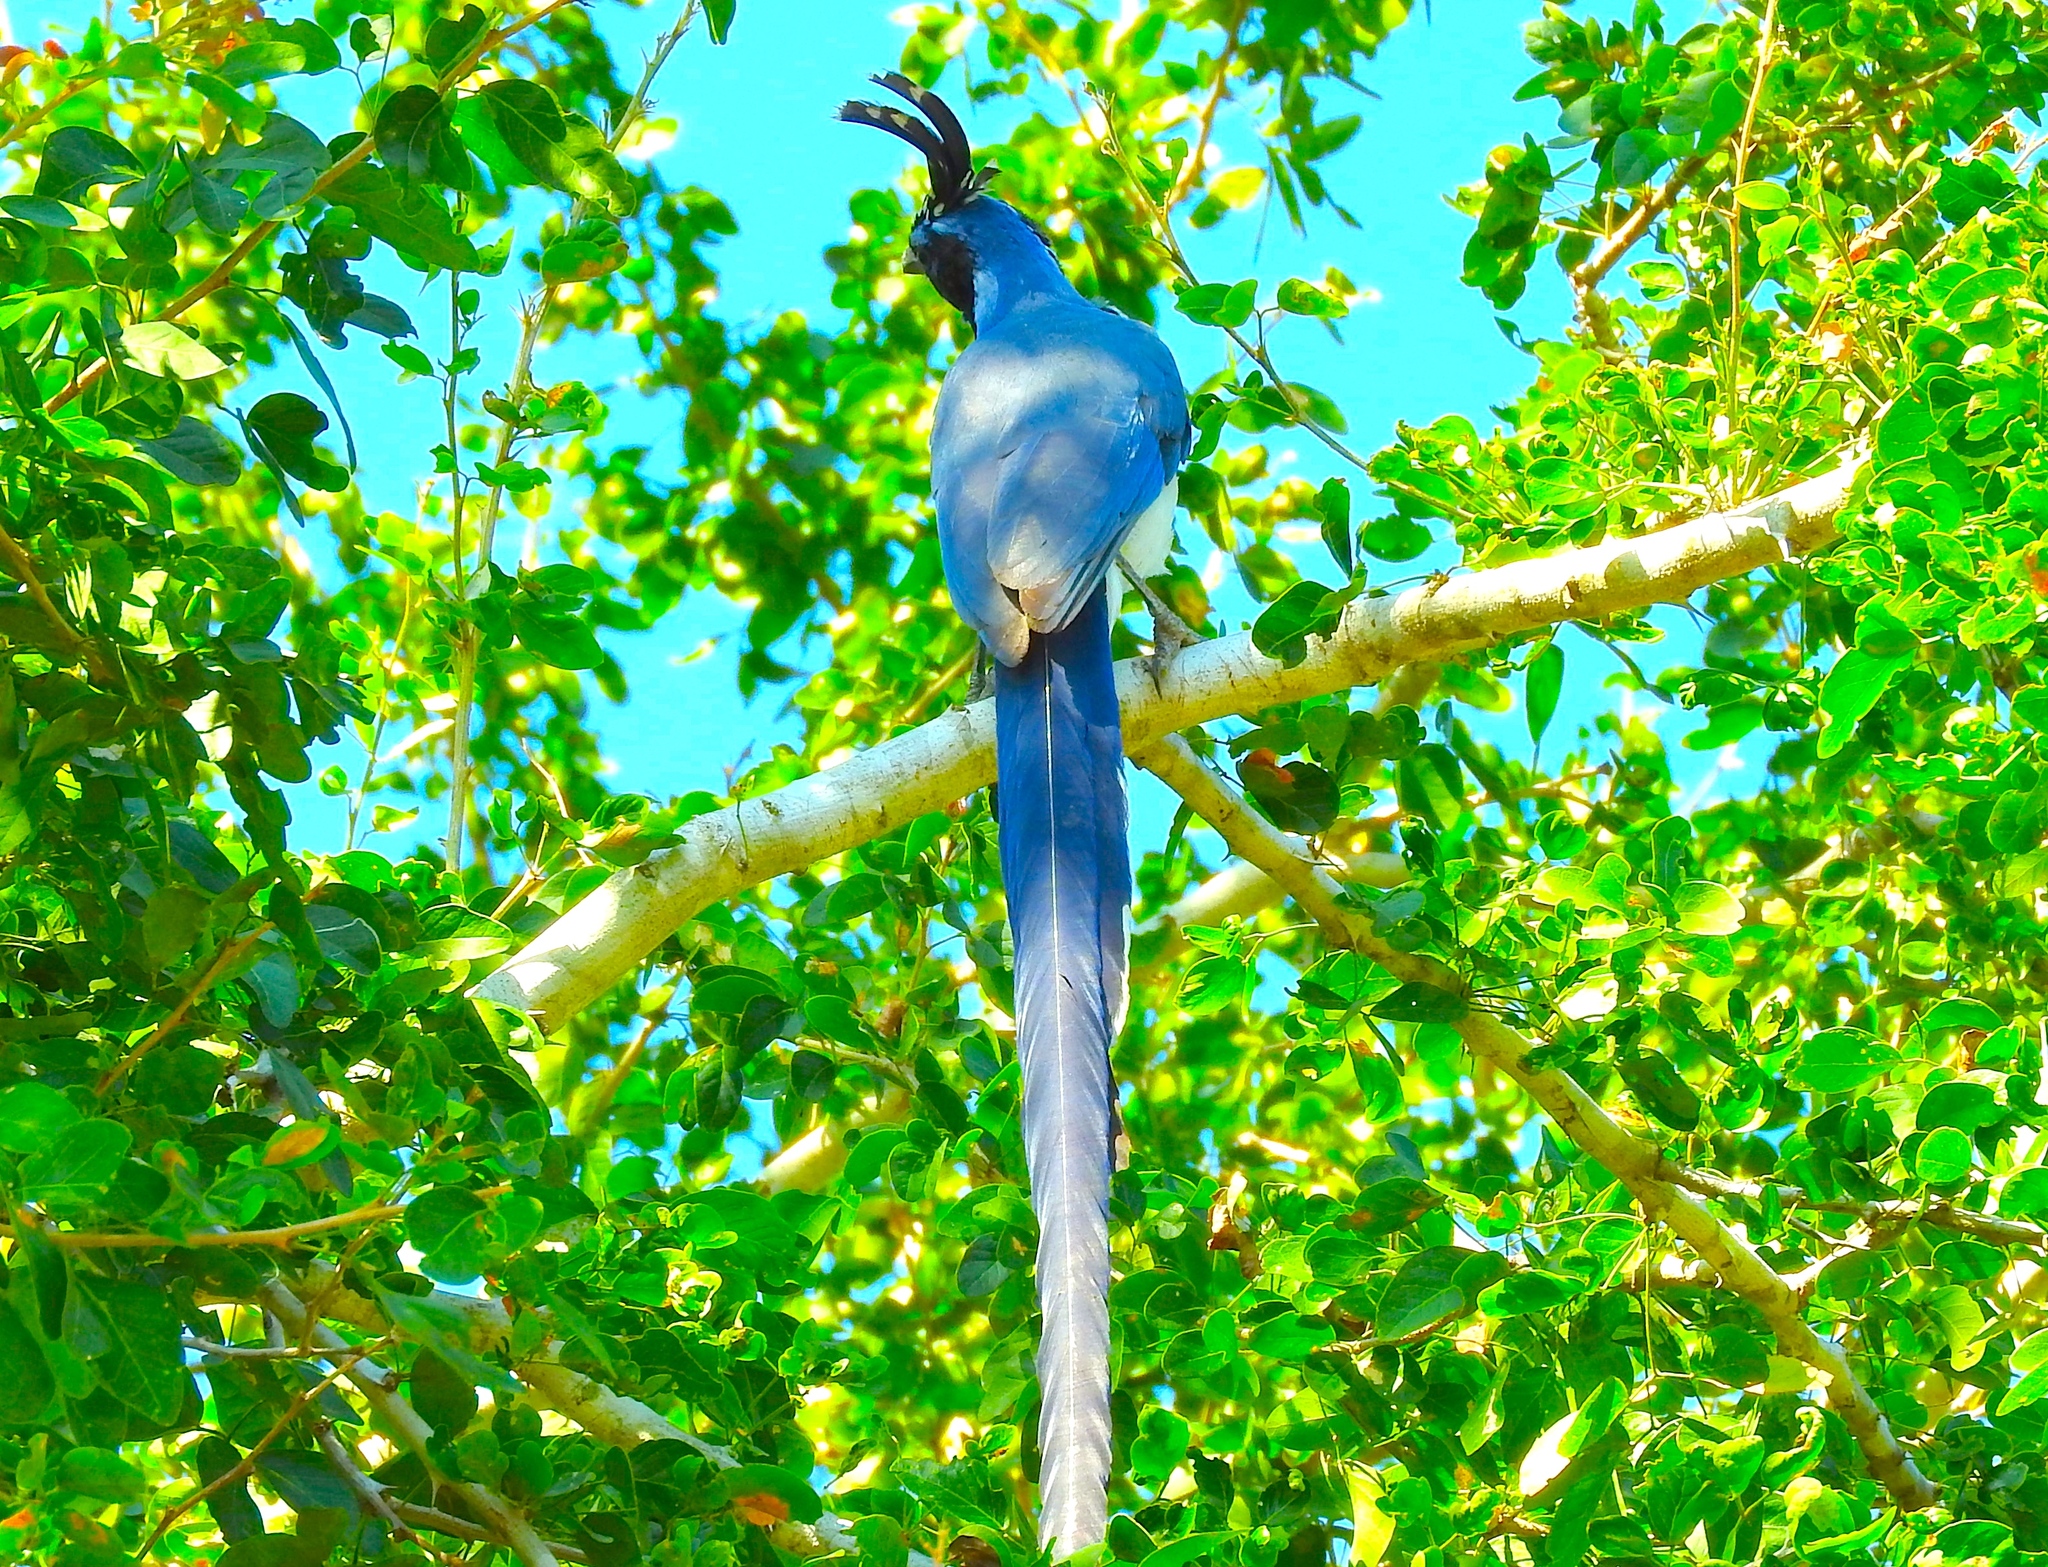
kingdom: Animalia
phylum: Chordata
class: Aves
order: Passeriformes
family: Corvidae
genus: Calocitta
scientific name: Calocitta colliei
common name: Black-throated magpie-jay
